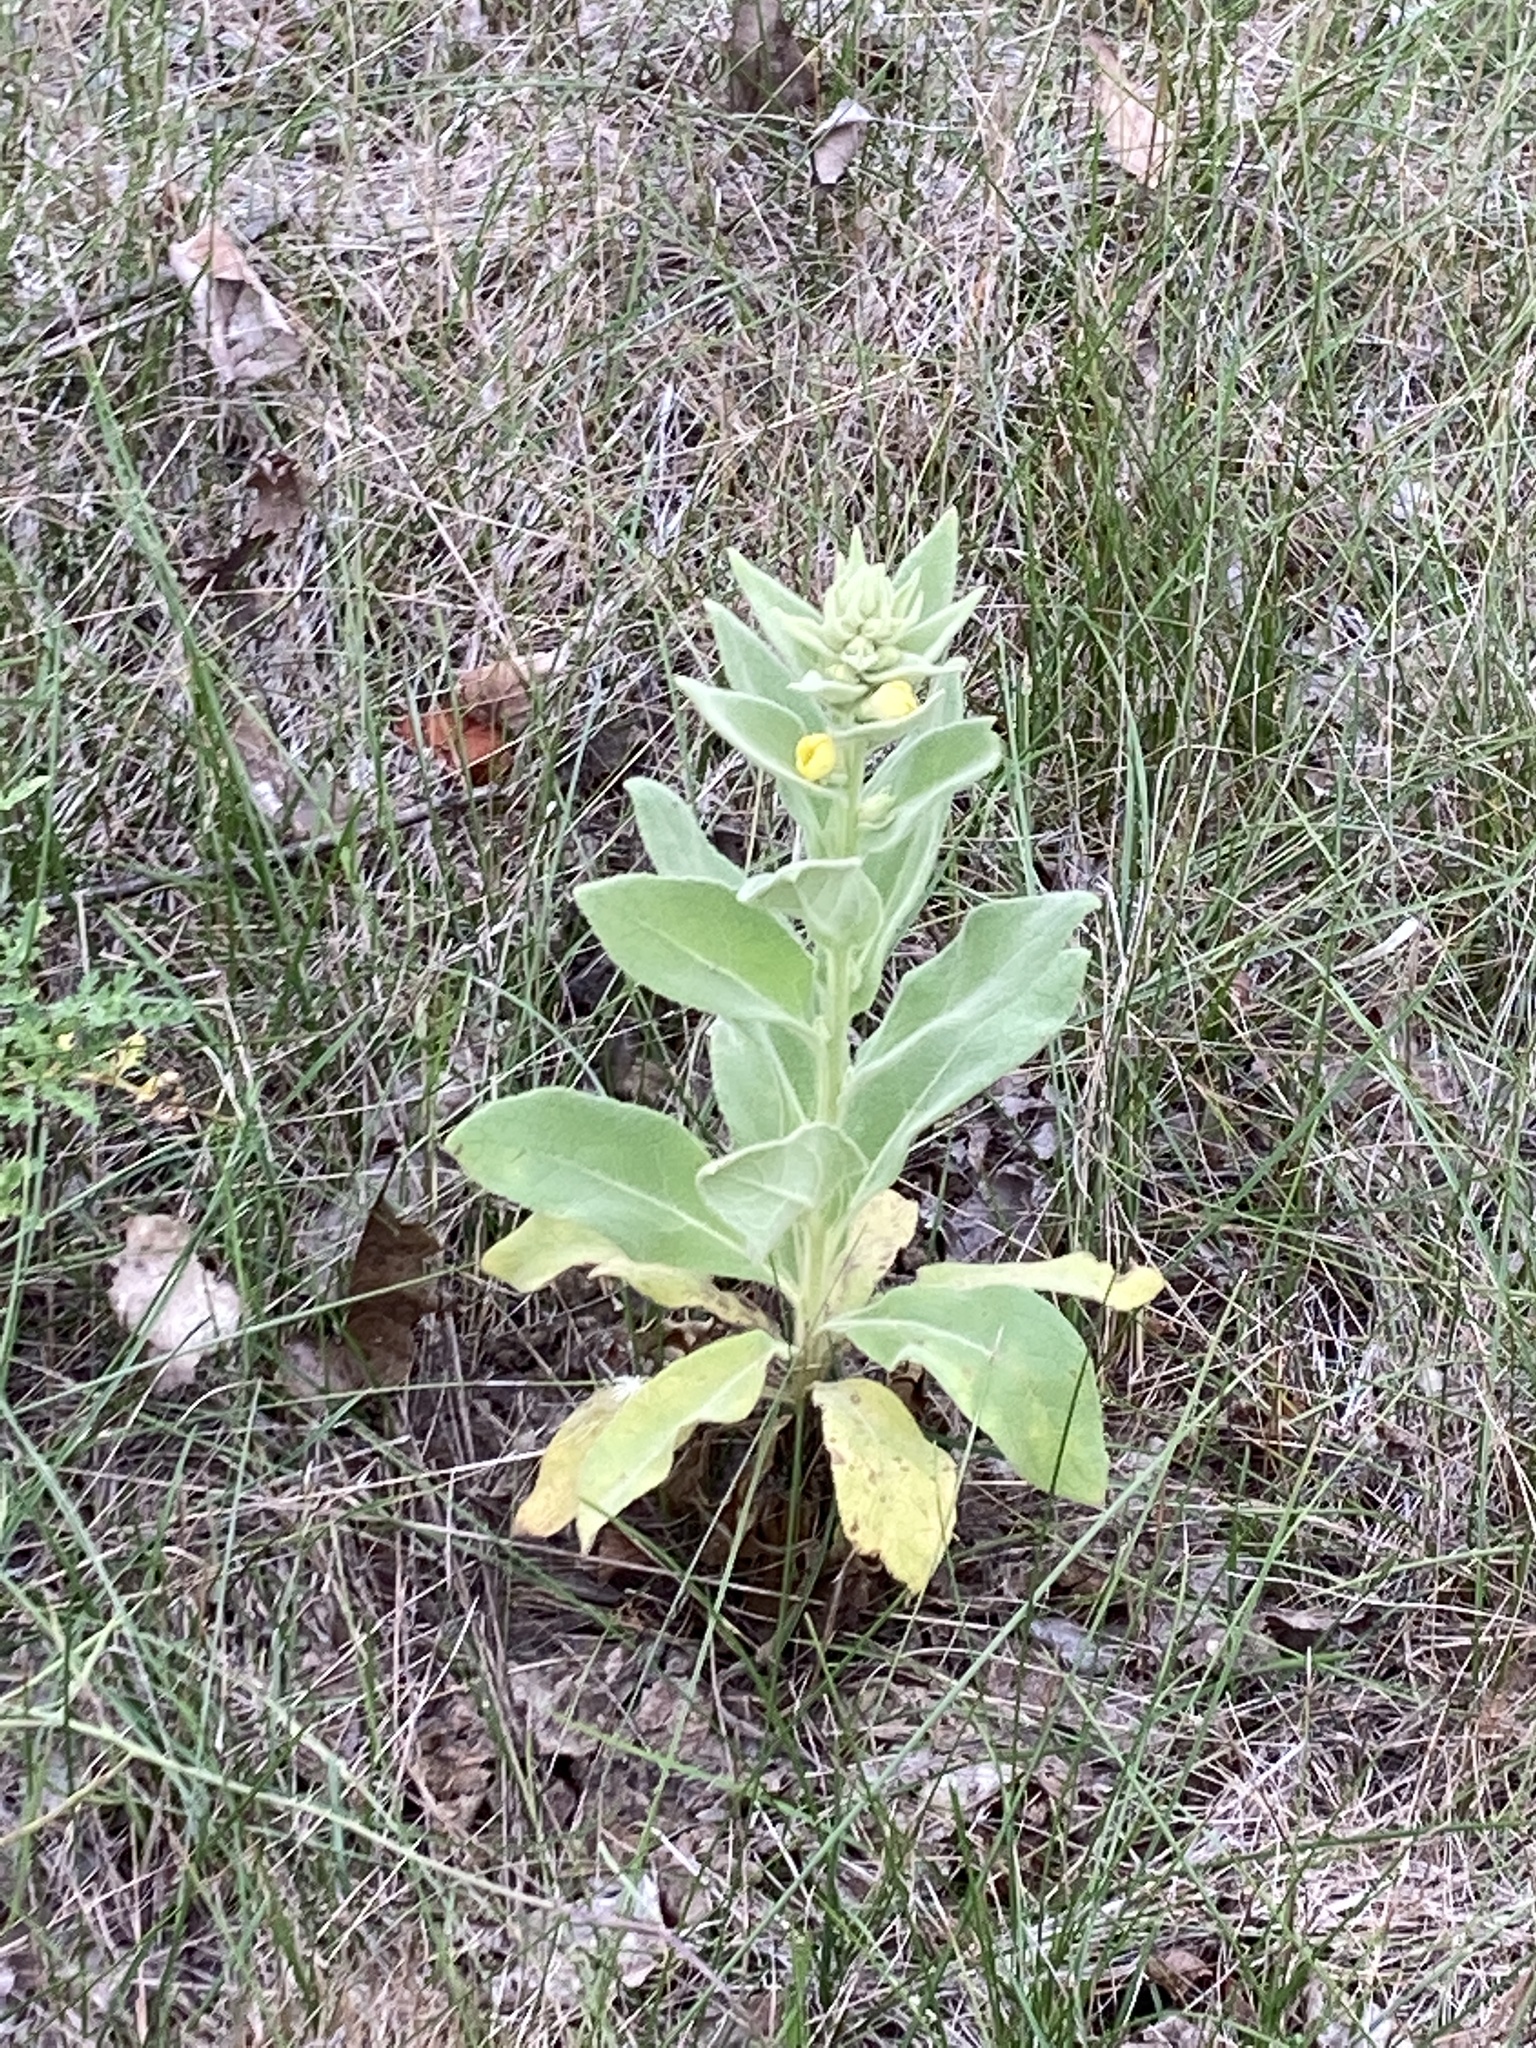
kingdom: Plantae
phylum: Tracheophyta
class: Magnoliopsida
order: Lamiales
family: Scrophulariaceae
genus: Verbascum
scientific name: Verbascum thapsus
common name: Common mullein
